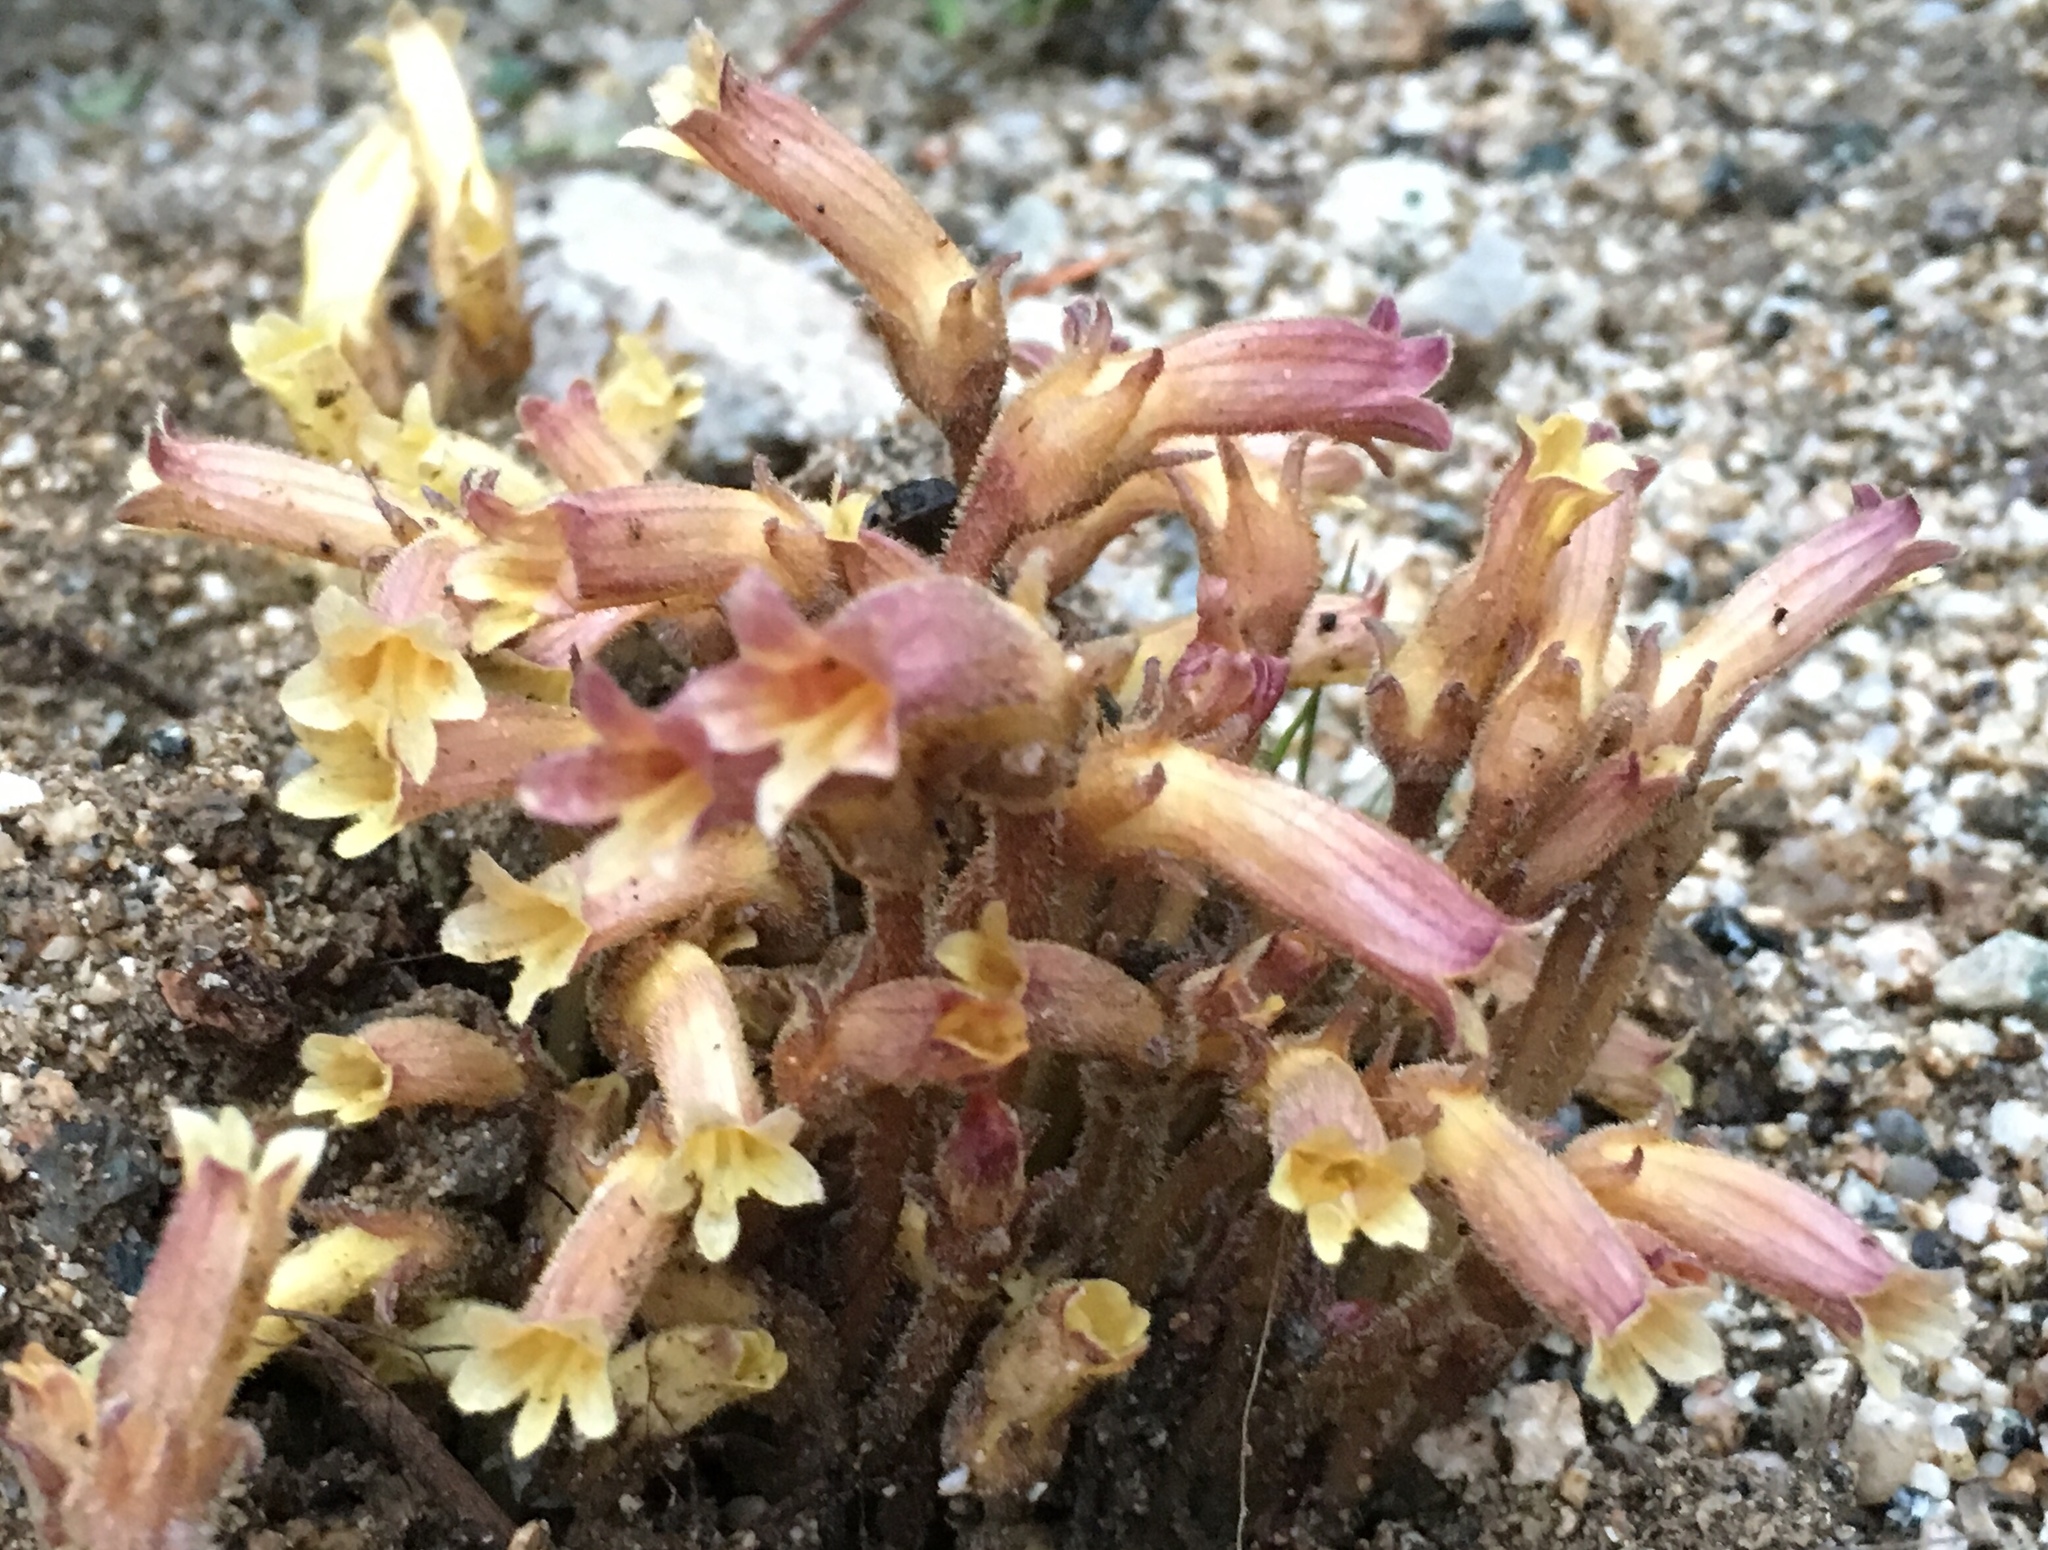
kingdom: Plantae
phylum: Tracheophyta
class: Magnoliopsida
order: Lamiales
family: Orobanchaceae
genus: Aphyllon
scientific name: Aphyllon franciscanum
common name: San francisco broomrape
